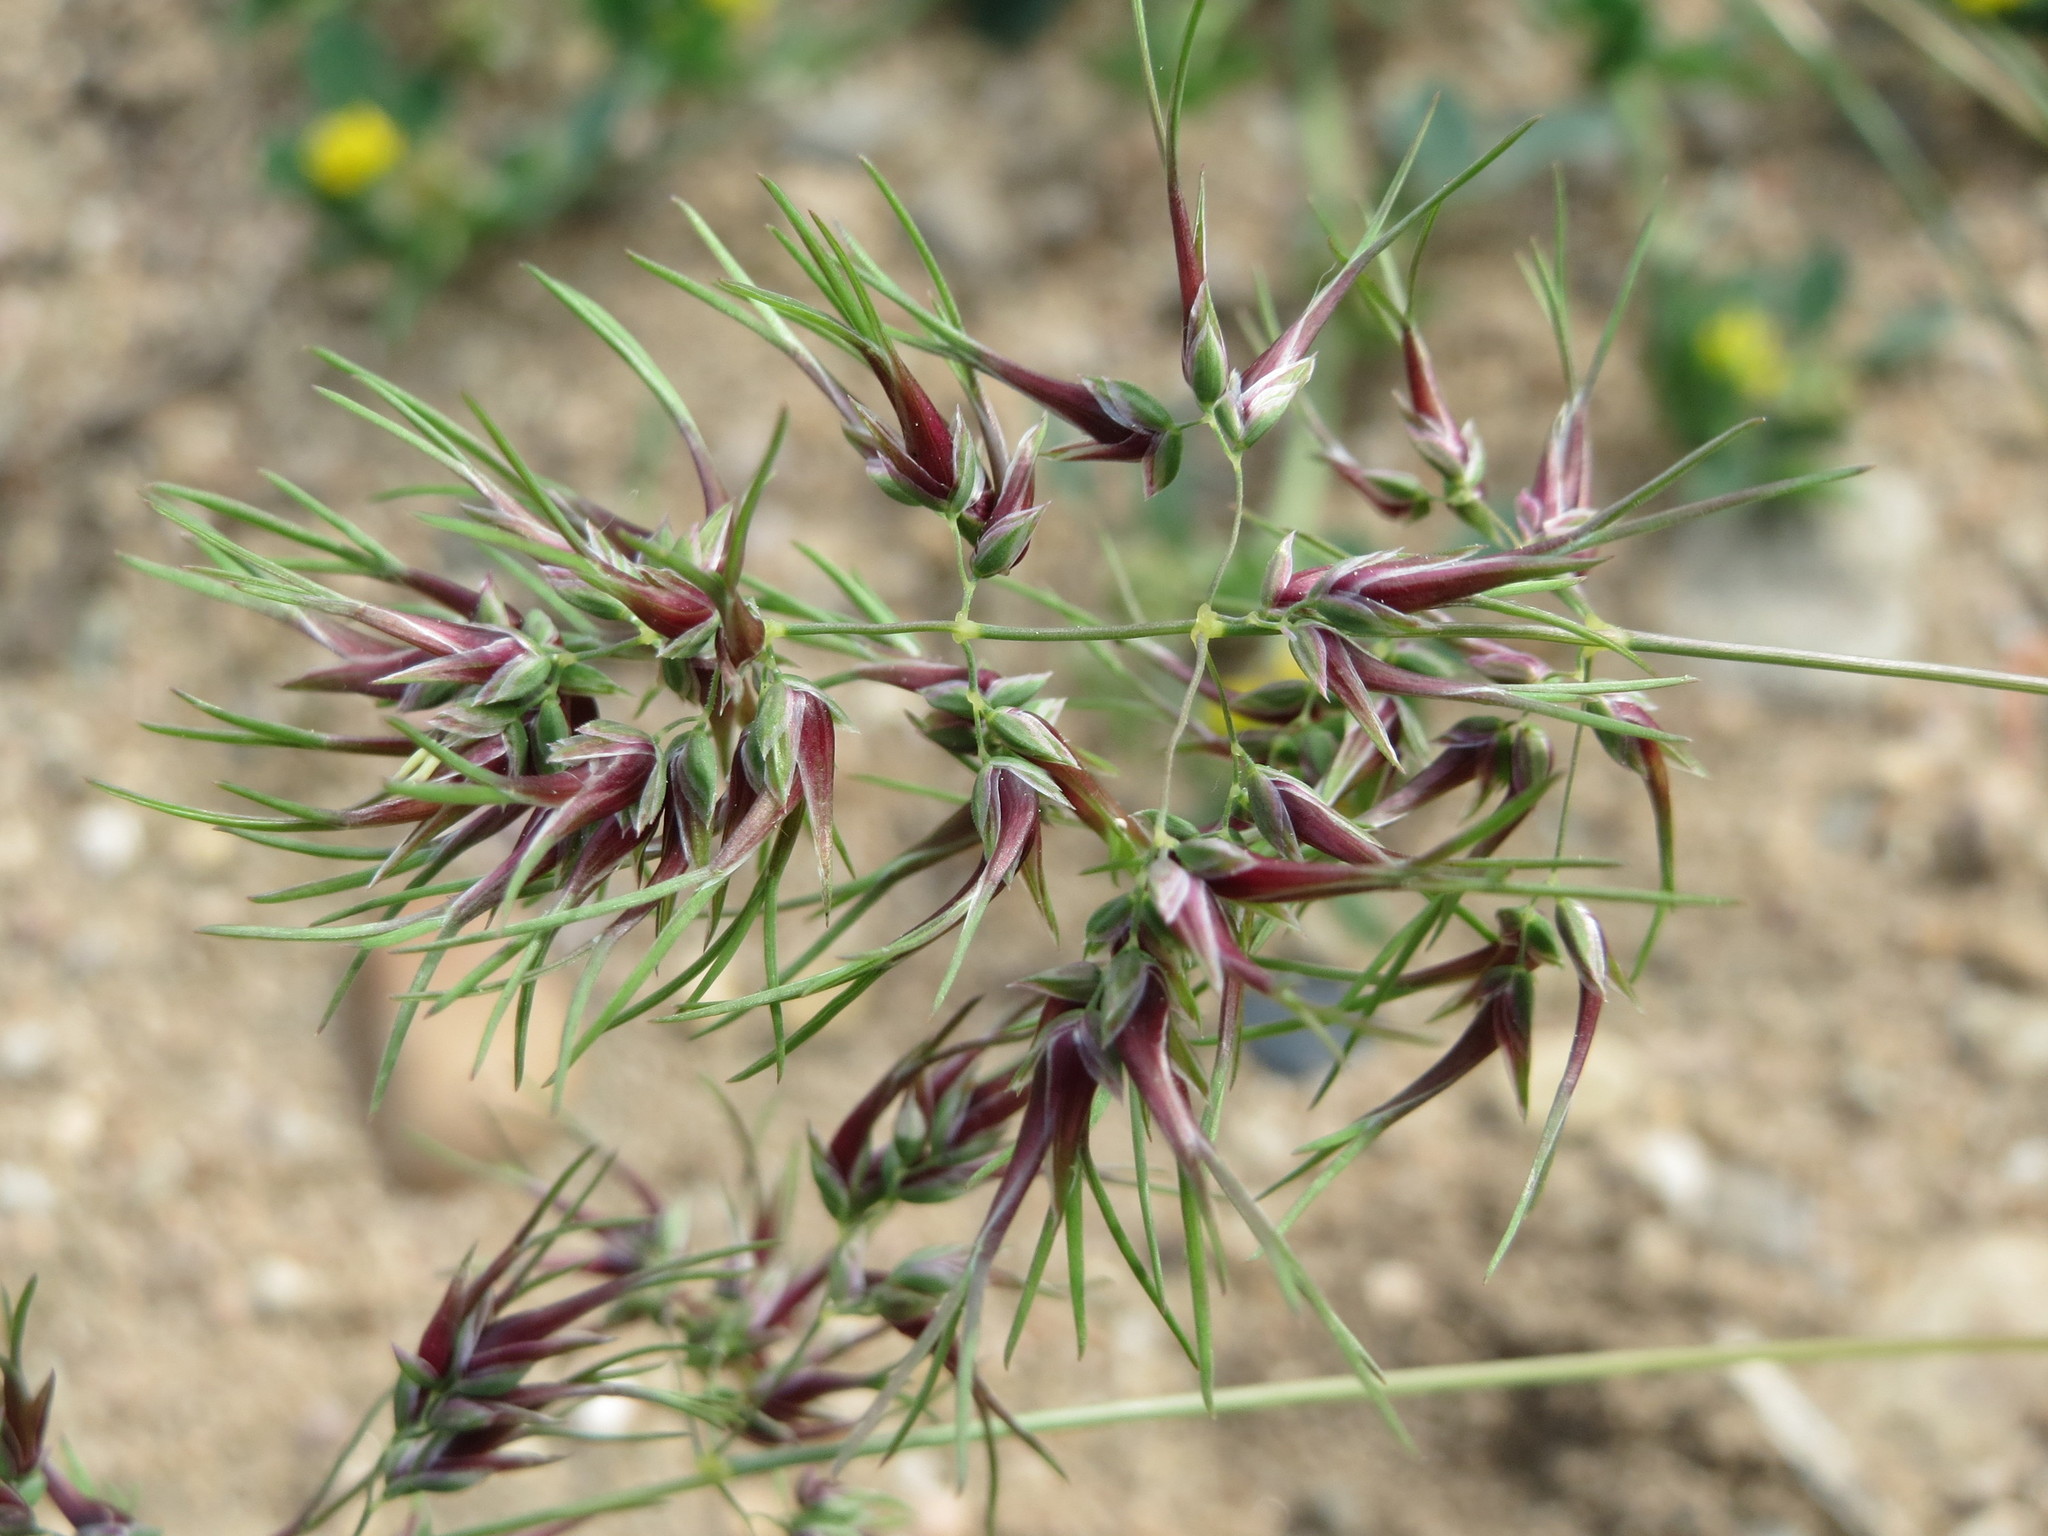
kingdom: Plantae
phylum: Tracheophyta
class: Liliopsida
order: Poales
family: Poaceae
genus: Poa
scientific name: Poa bulbosa
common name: Bulbous bluegrass
